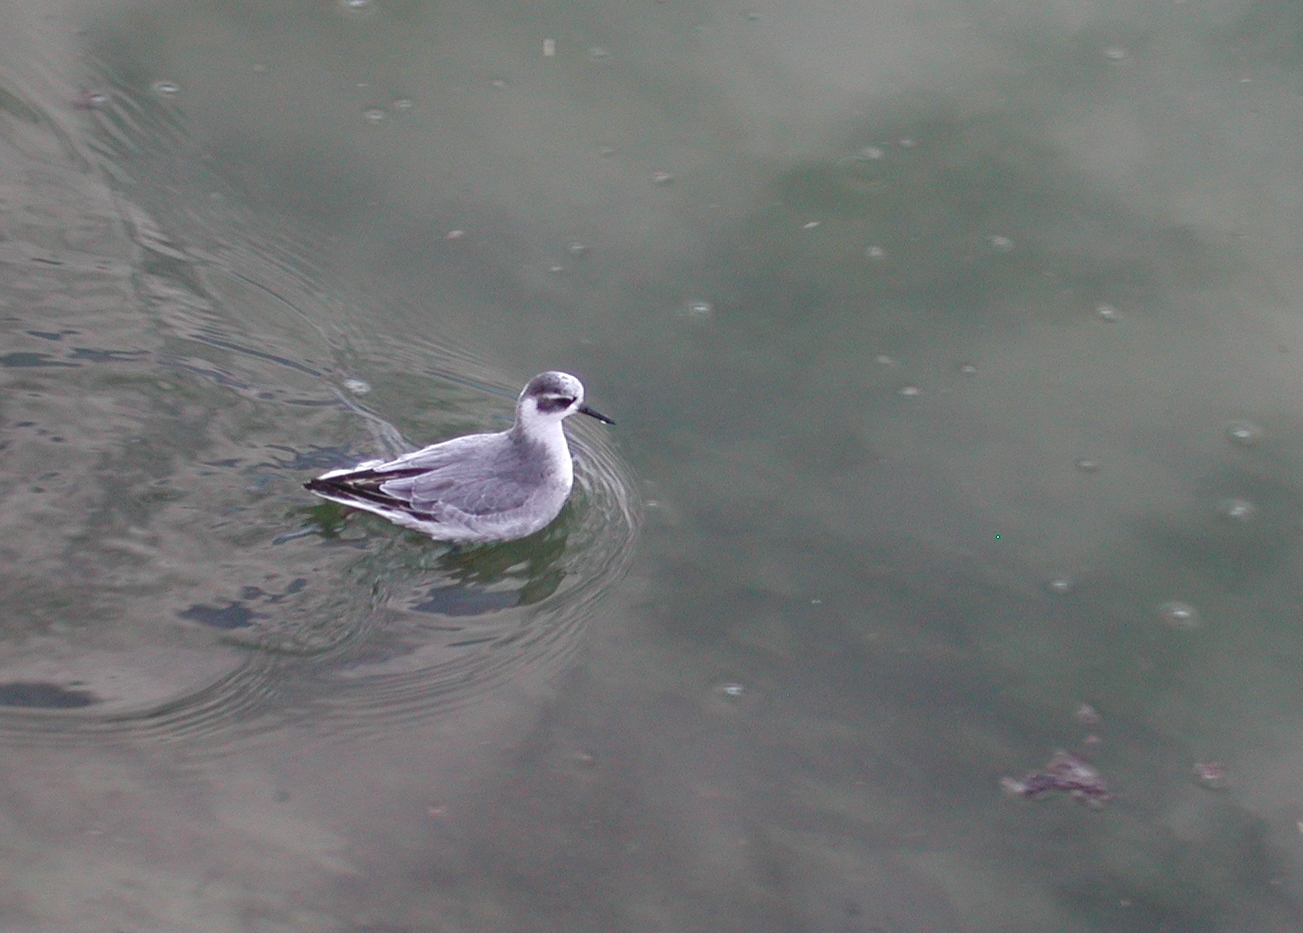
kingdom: Animalia
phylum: Chordata
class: Aves
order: Charadriiformes
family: Scolopacidae
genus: Phalaropus
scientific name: Phalaropus fulicarius
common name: Red phalarope
